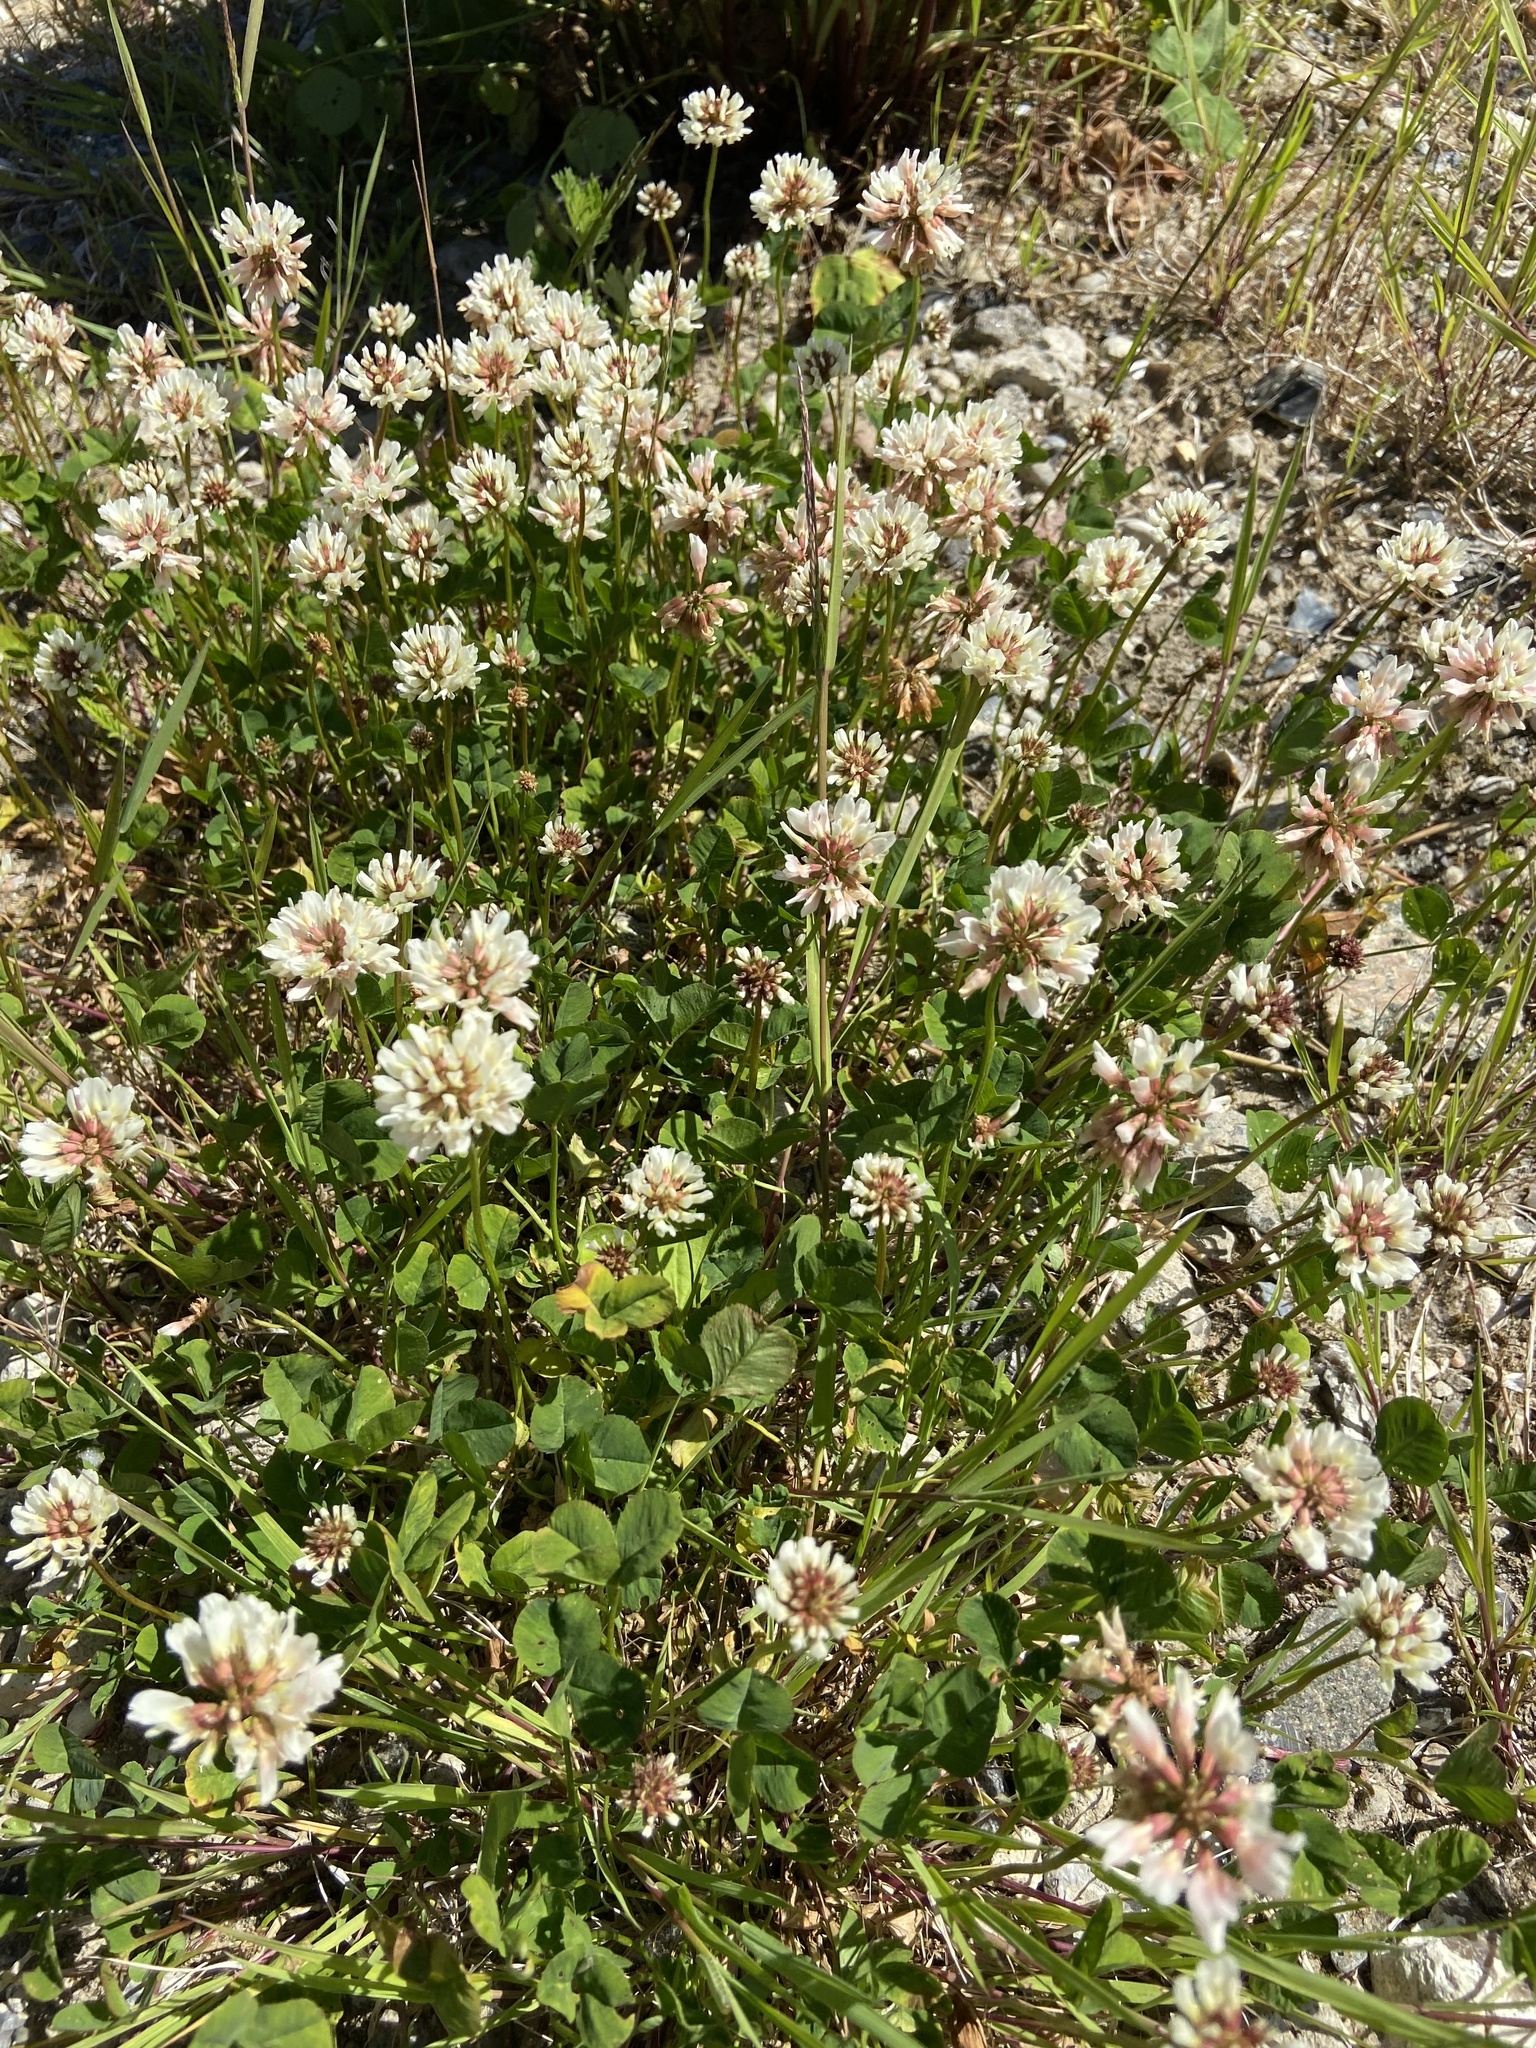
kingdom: Plantae
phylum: Tracheophyta
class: Magnoliopsida
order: Fabales
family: Fabaceae
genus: Trifolium
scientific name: Trifolium repens
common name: White clover
